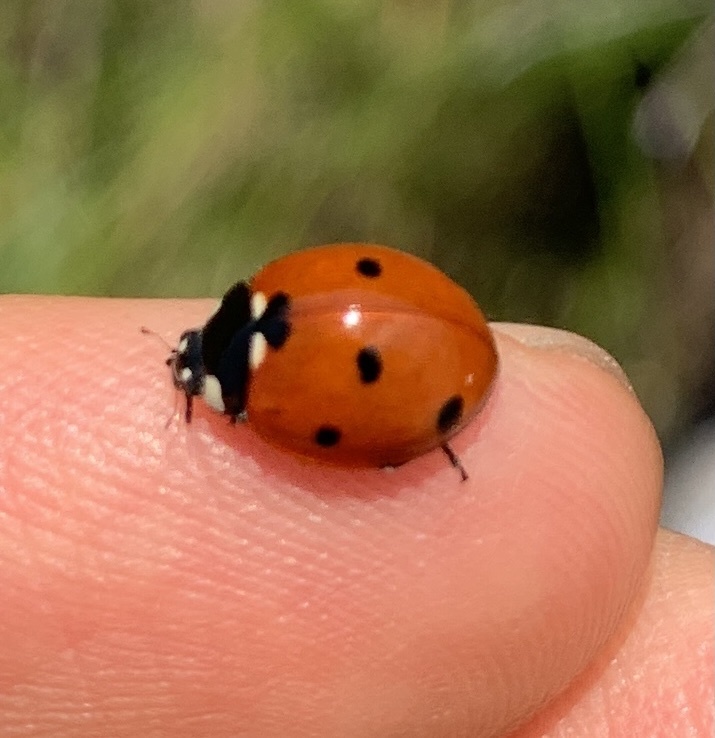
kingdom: Animalia
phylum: Arthropoda
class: Insecta
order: Coleoptera
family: Coccinellidae
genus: Coccinella
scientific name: Coccinella septempunctata
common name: Sevenspotted lady beetle
